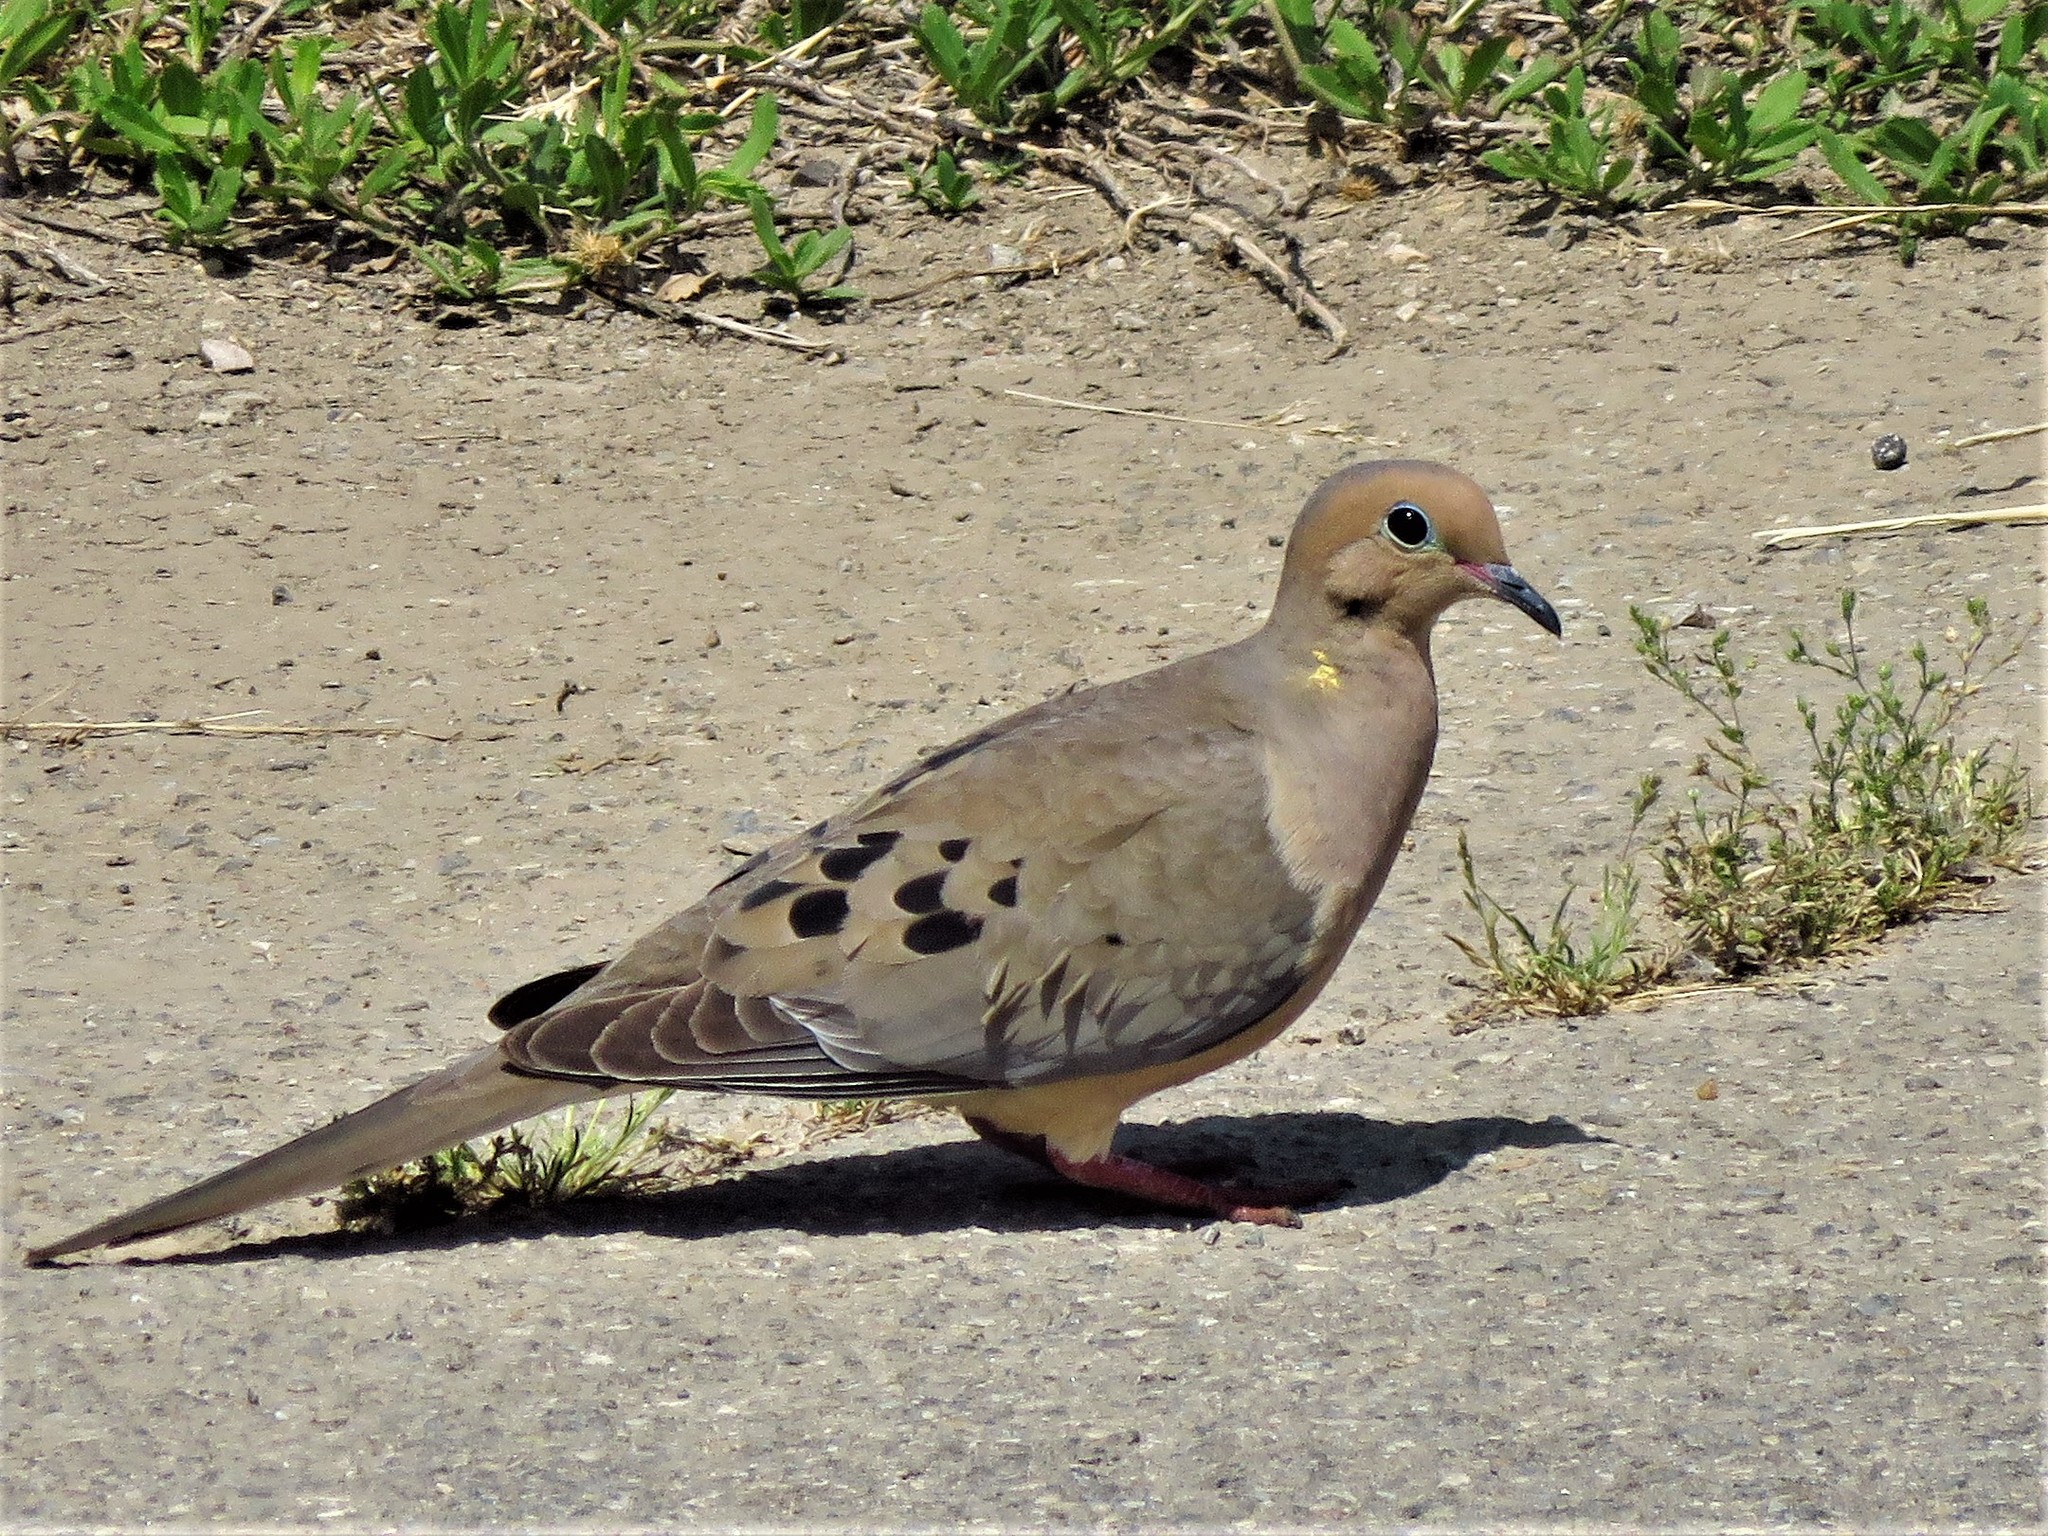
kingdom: Animalia
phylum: Chordata
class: Aves
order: Columbiformes
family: Columbidae
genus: Zenaida
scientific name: Zenaida macroura
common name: Mourning dove
